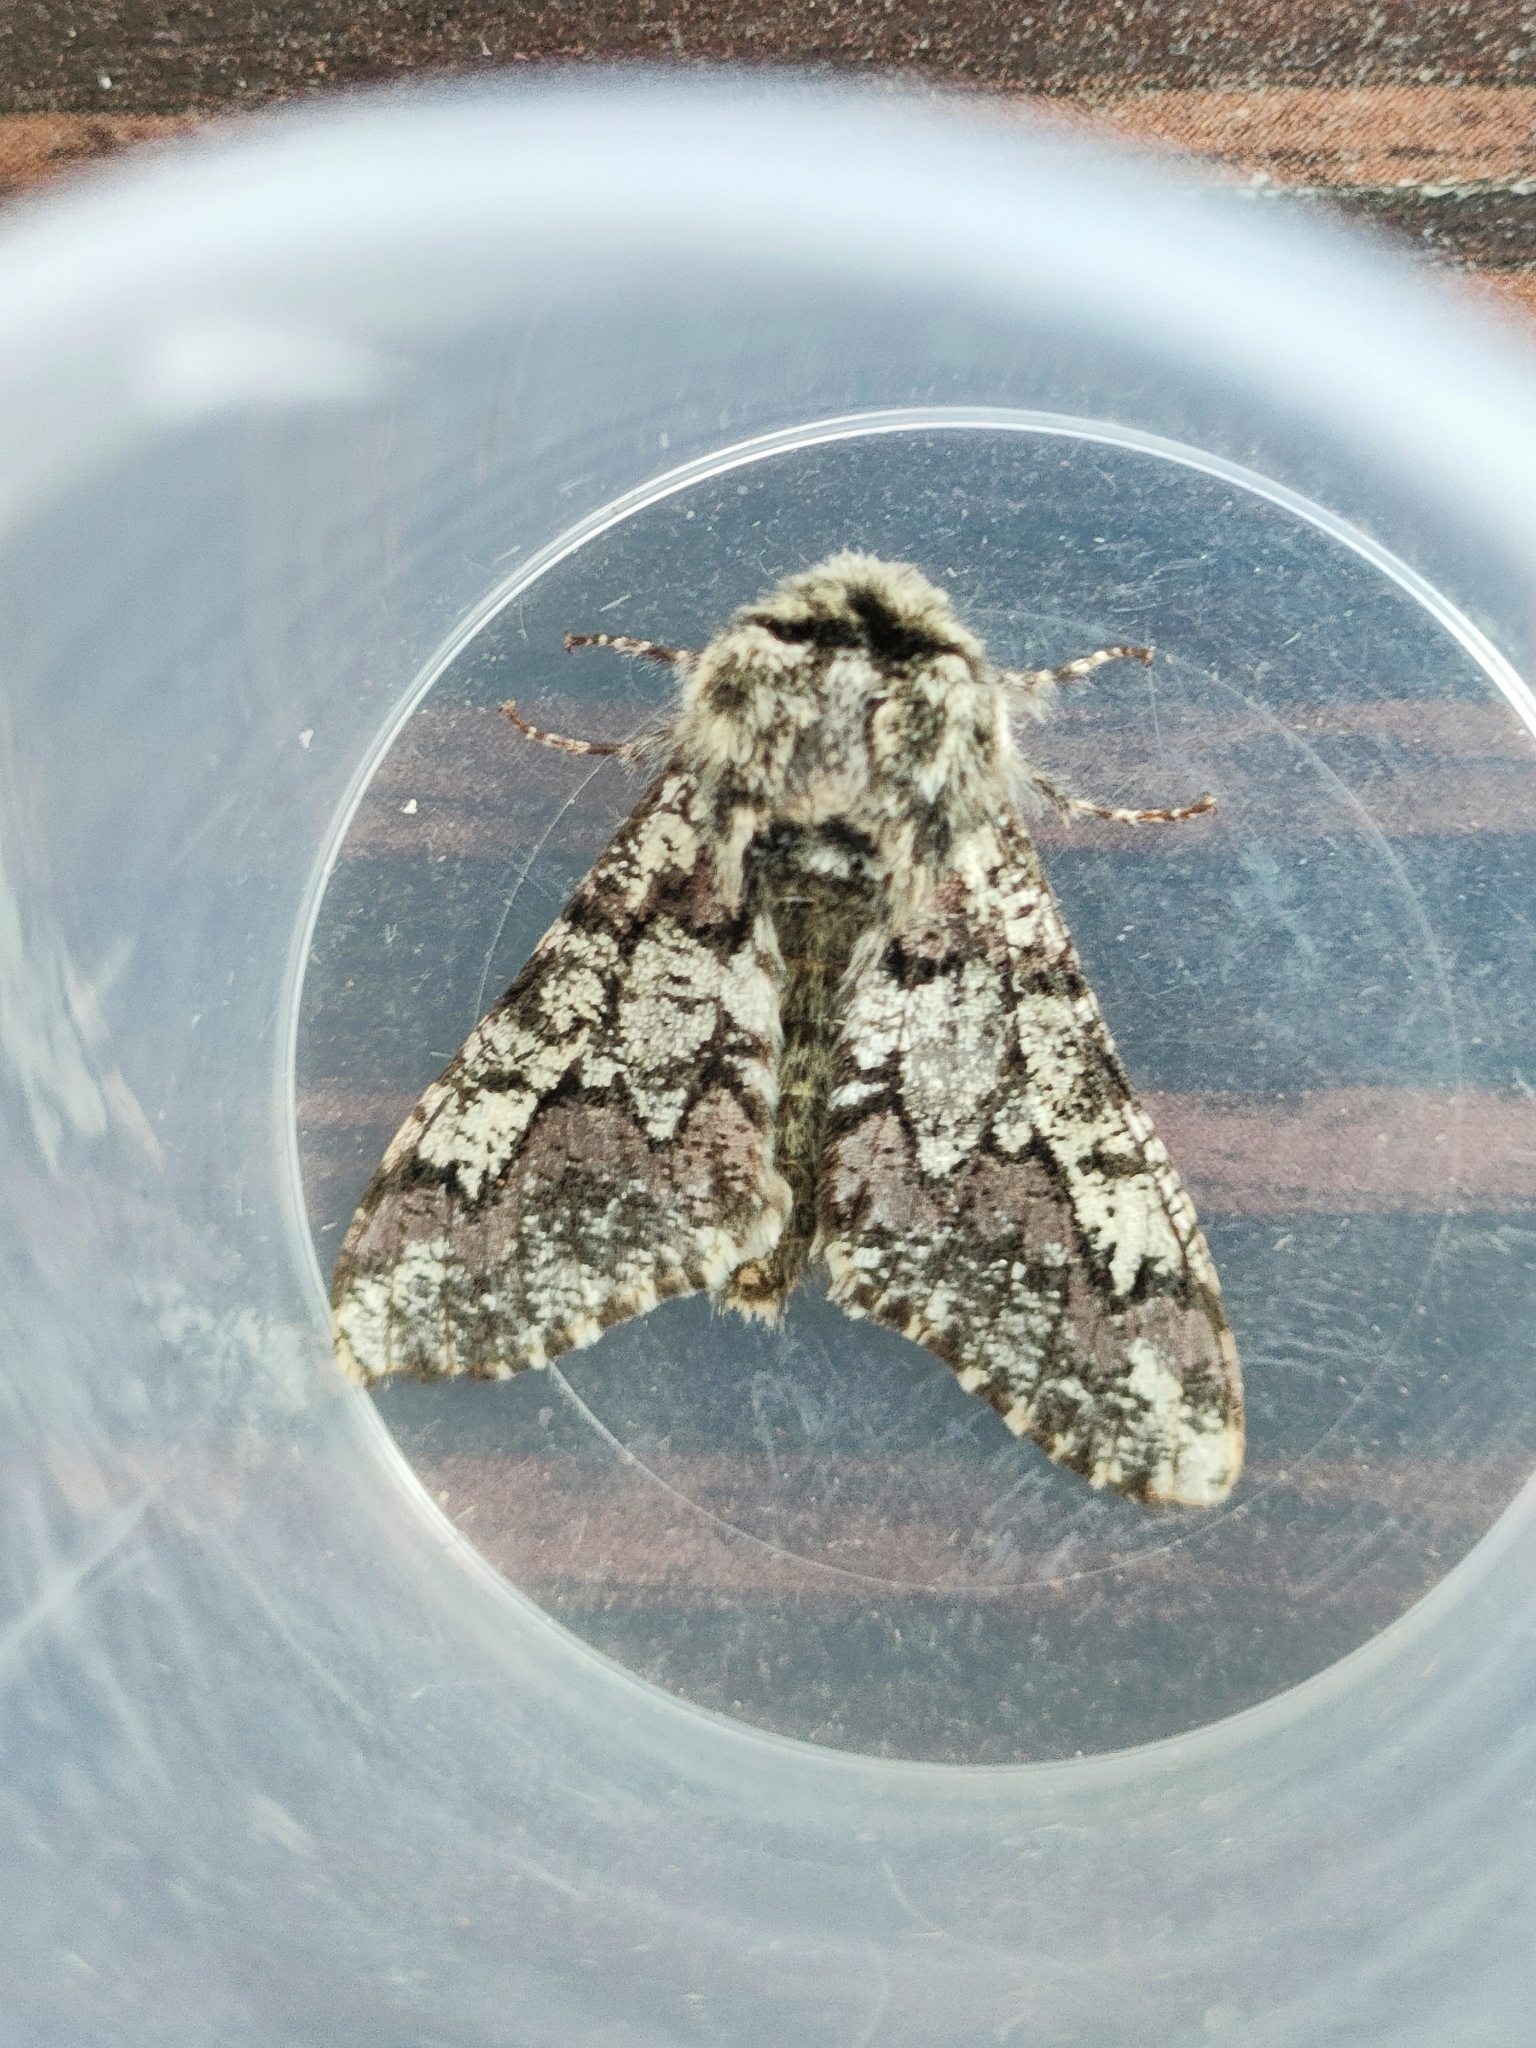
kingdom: Animalia
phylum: Arthropoda
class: Insecta
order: Lepidoptera
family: Geometridae
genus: Biston
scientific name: Biston strataria
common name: Oak beauty
